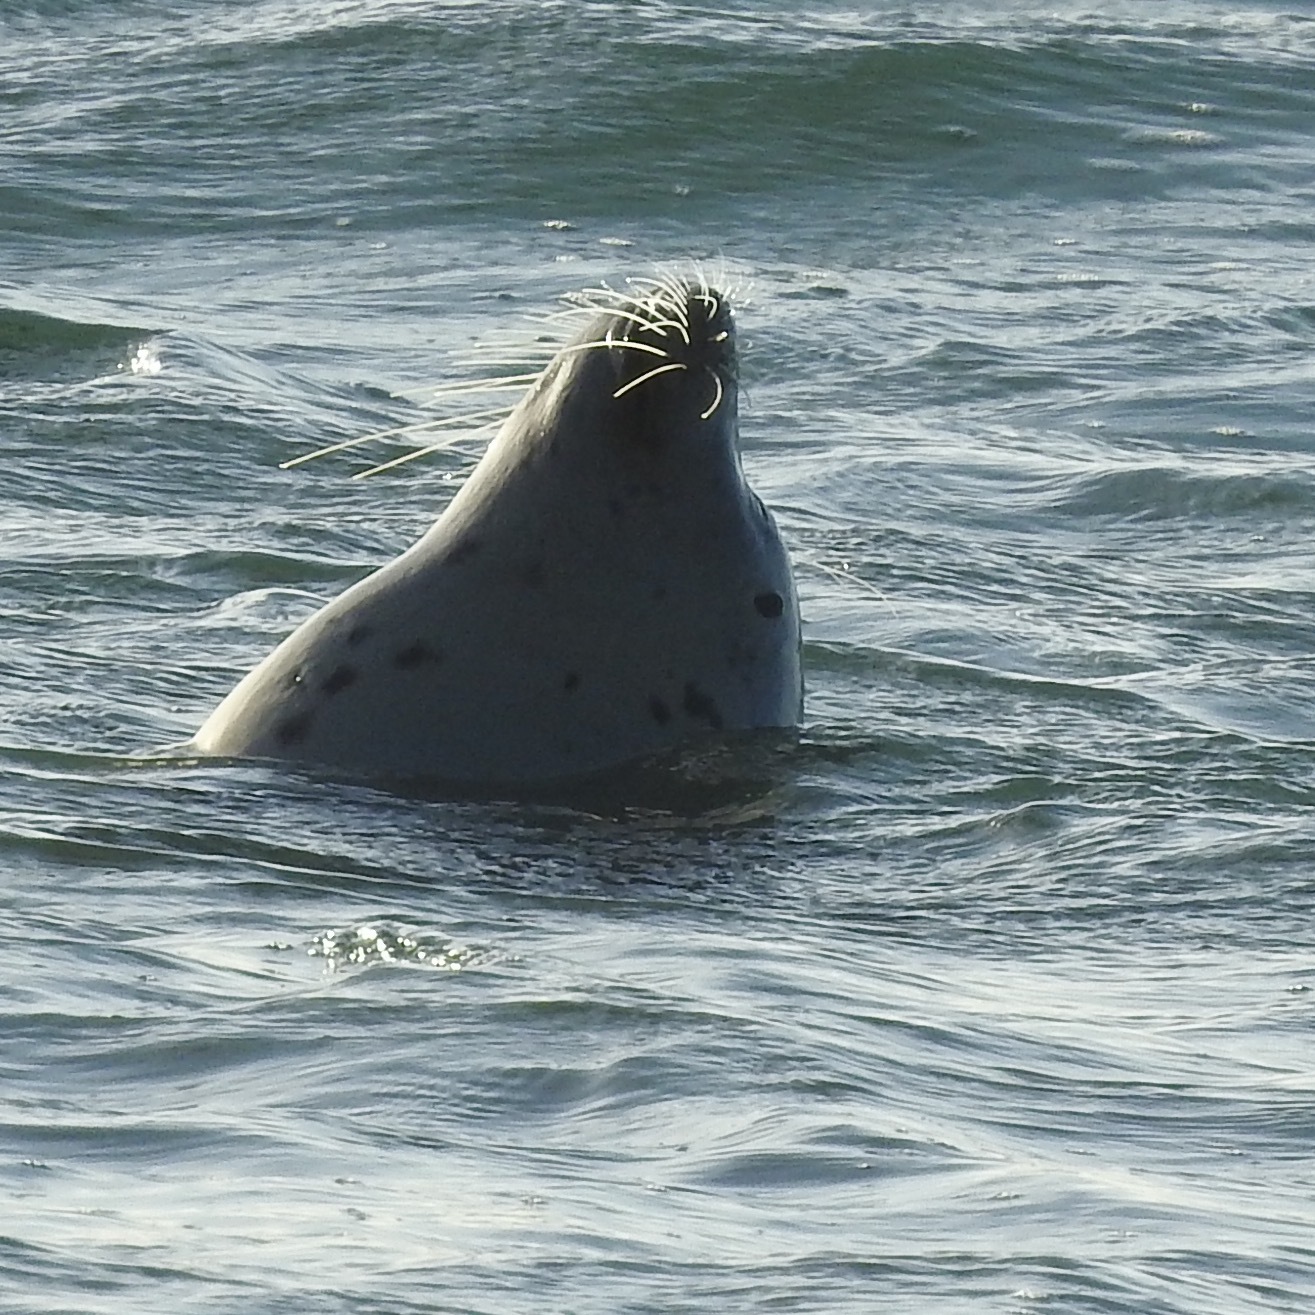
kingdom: Animalia
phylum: Chordata
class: Mammalia
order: Carnivora
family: Phocidae
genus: Phoca
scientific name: Phoca vitulina
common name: Harbor seal
